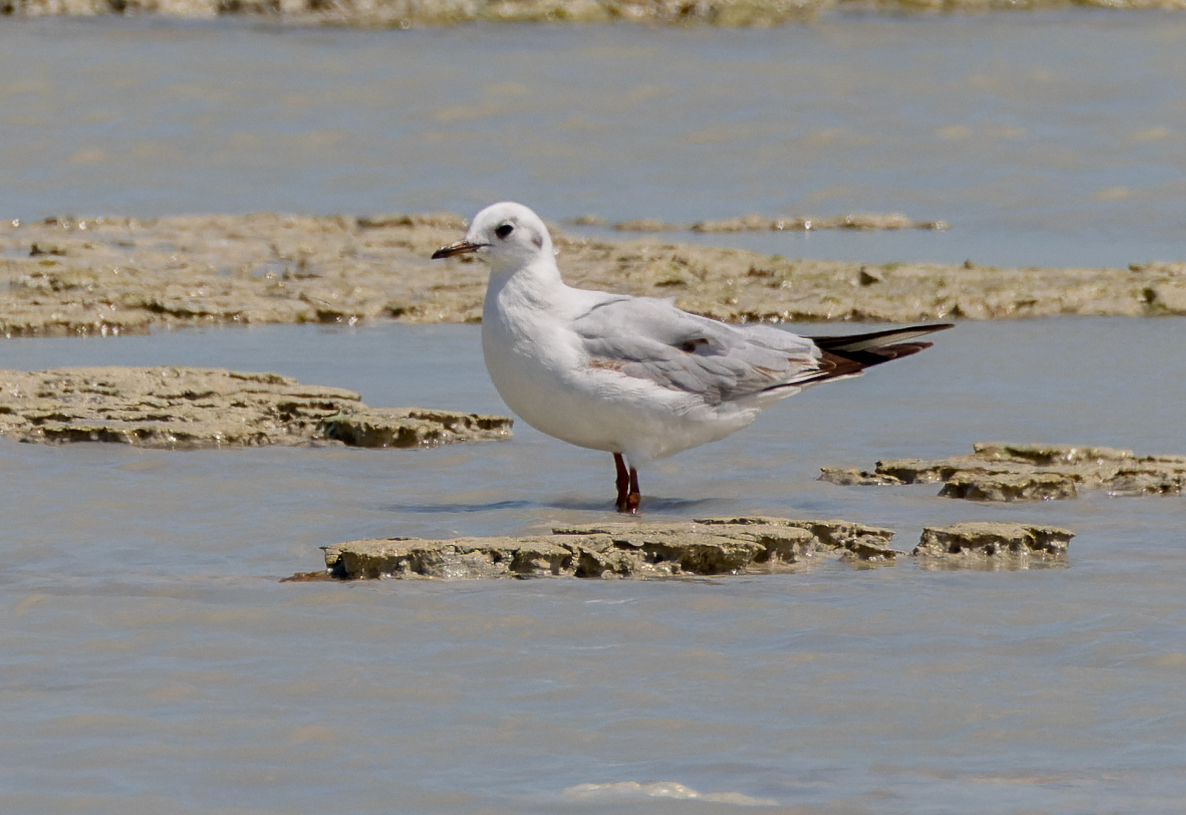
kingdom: Animalia
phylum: Chordata
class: Aves
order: Charadriiformes
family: Laridae
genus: Chroicocephalus
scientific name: Chroicocephalus ridibundus
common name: Black-headed gull
